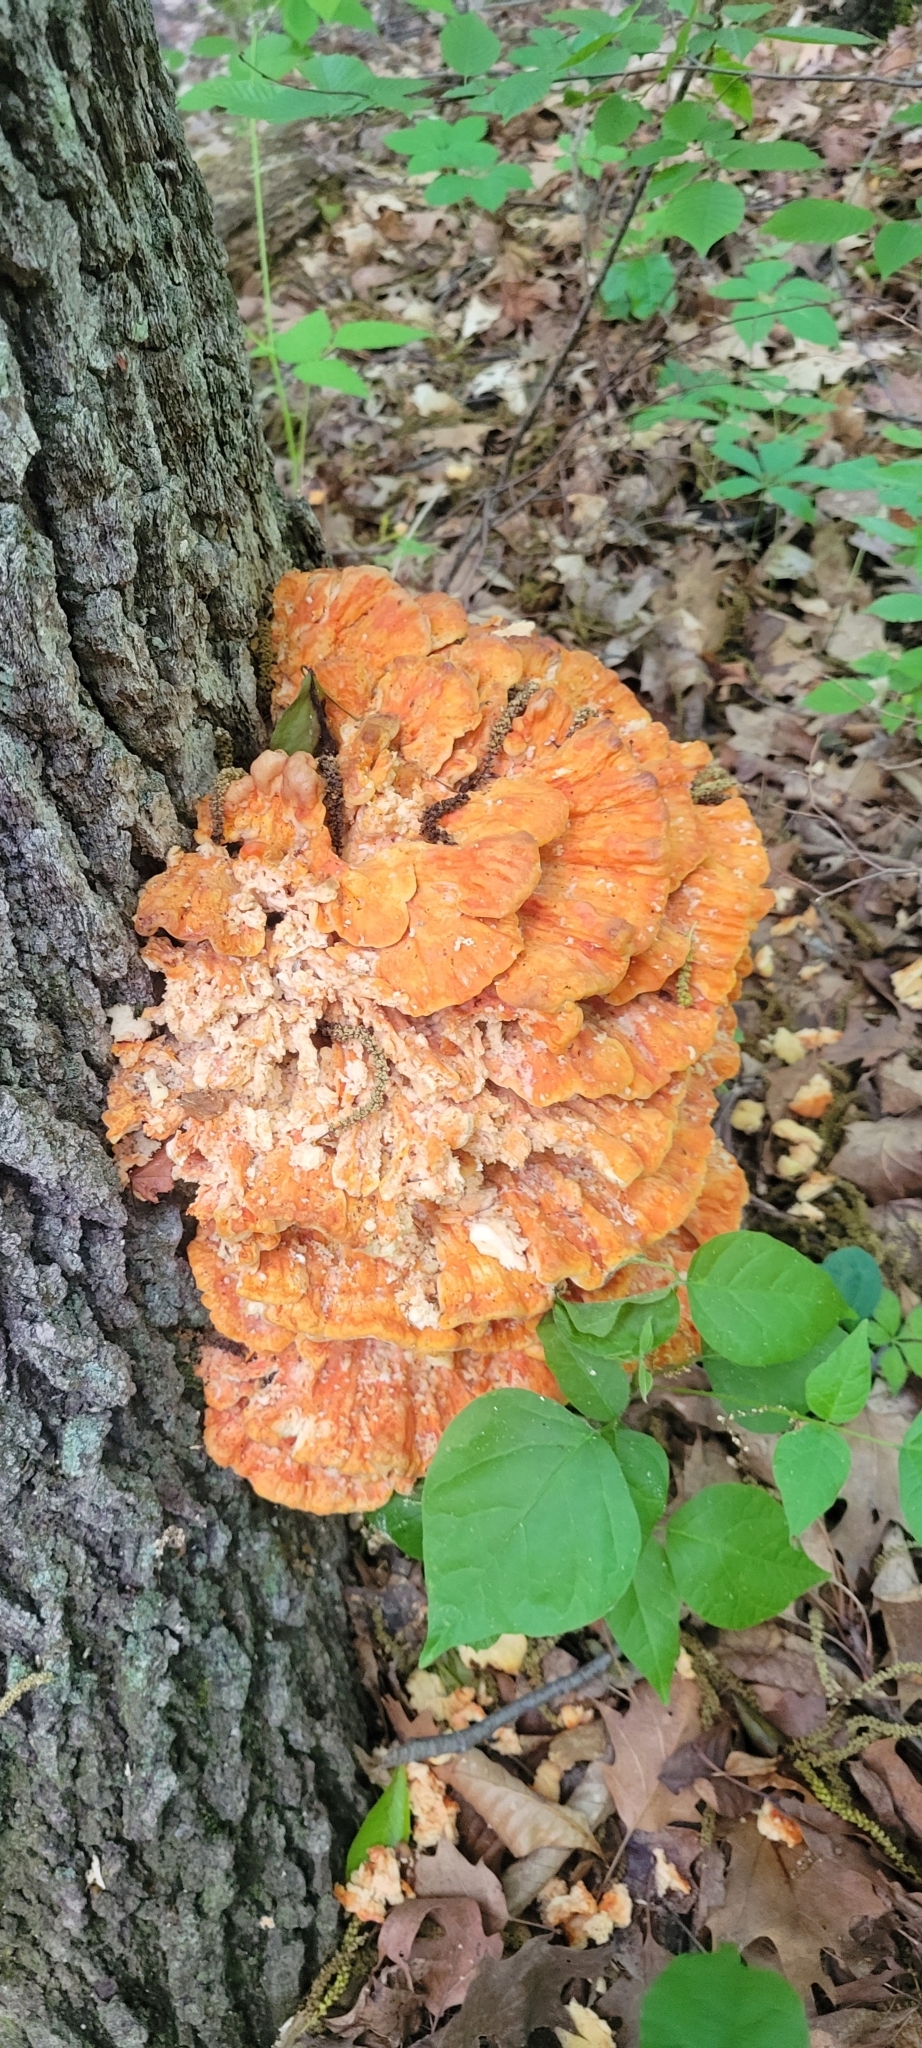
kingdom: Fungi
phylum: Basidiomycota
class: Agaricomycetes
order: Polyporales
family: Laetiporaceae
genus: Laetiporus
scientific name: Laetiporus sulphureus
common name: Chicken of the woods
